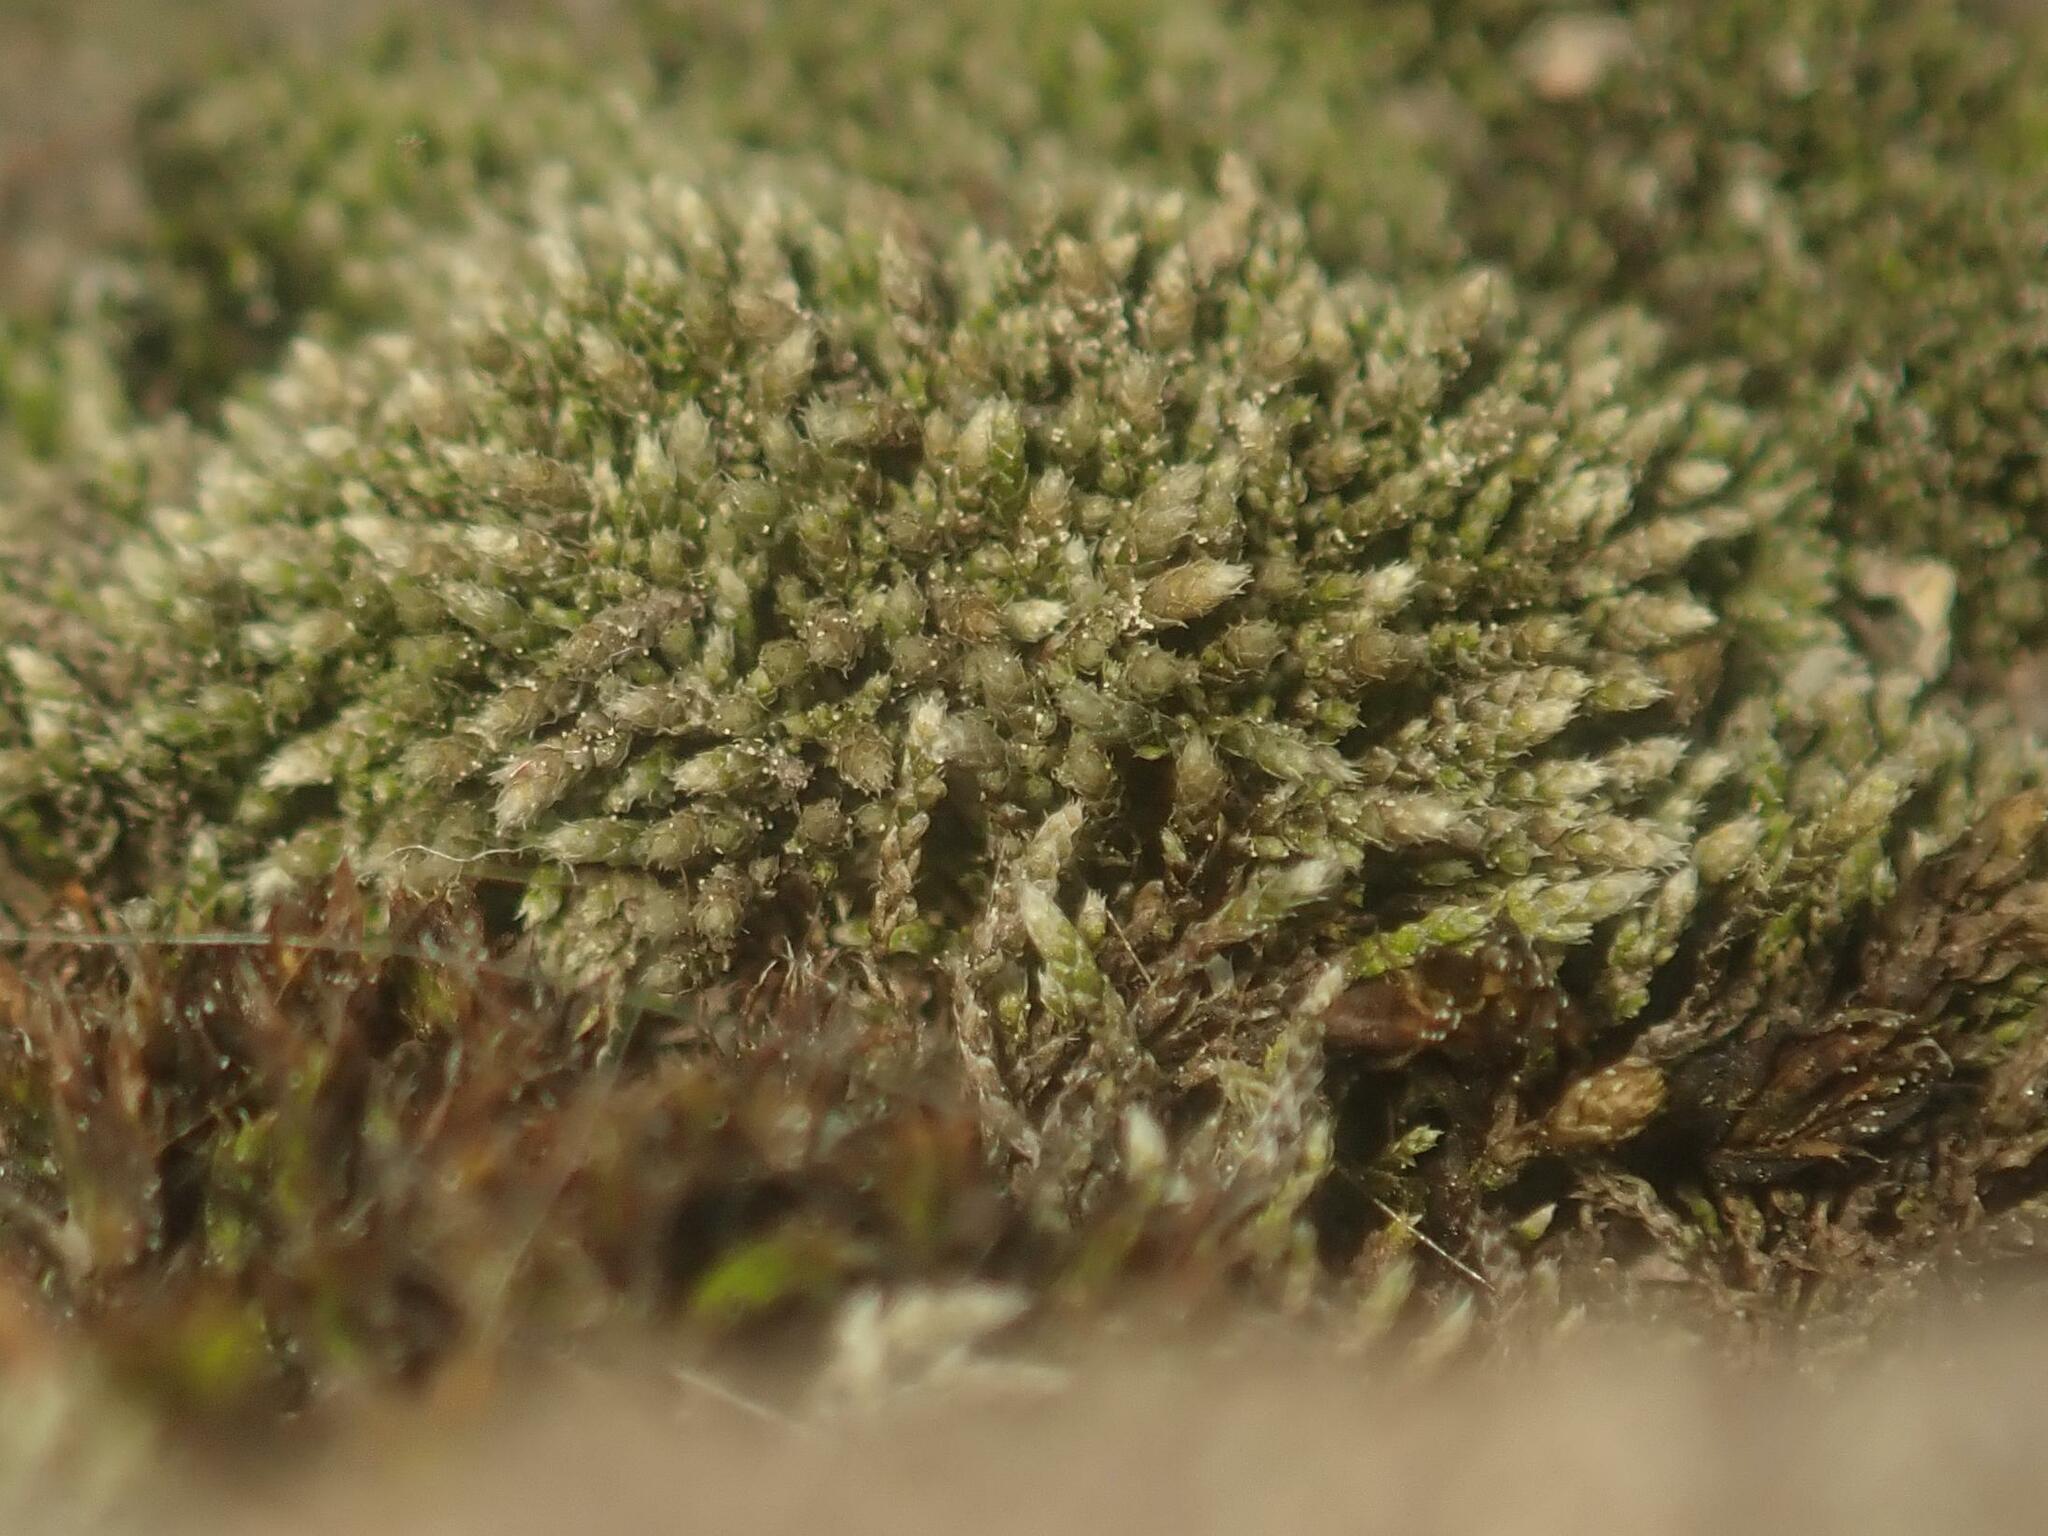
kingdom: Plantae
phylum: Bryophyta
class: Bryopsida
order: Bryales
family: Bryaceae
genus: Bryum
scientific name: Bryum argenteum
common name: Silver-moss
